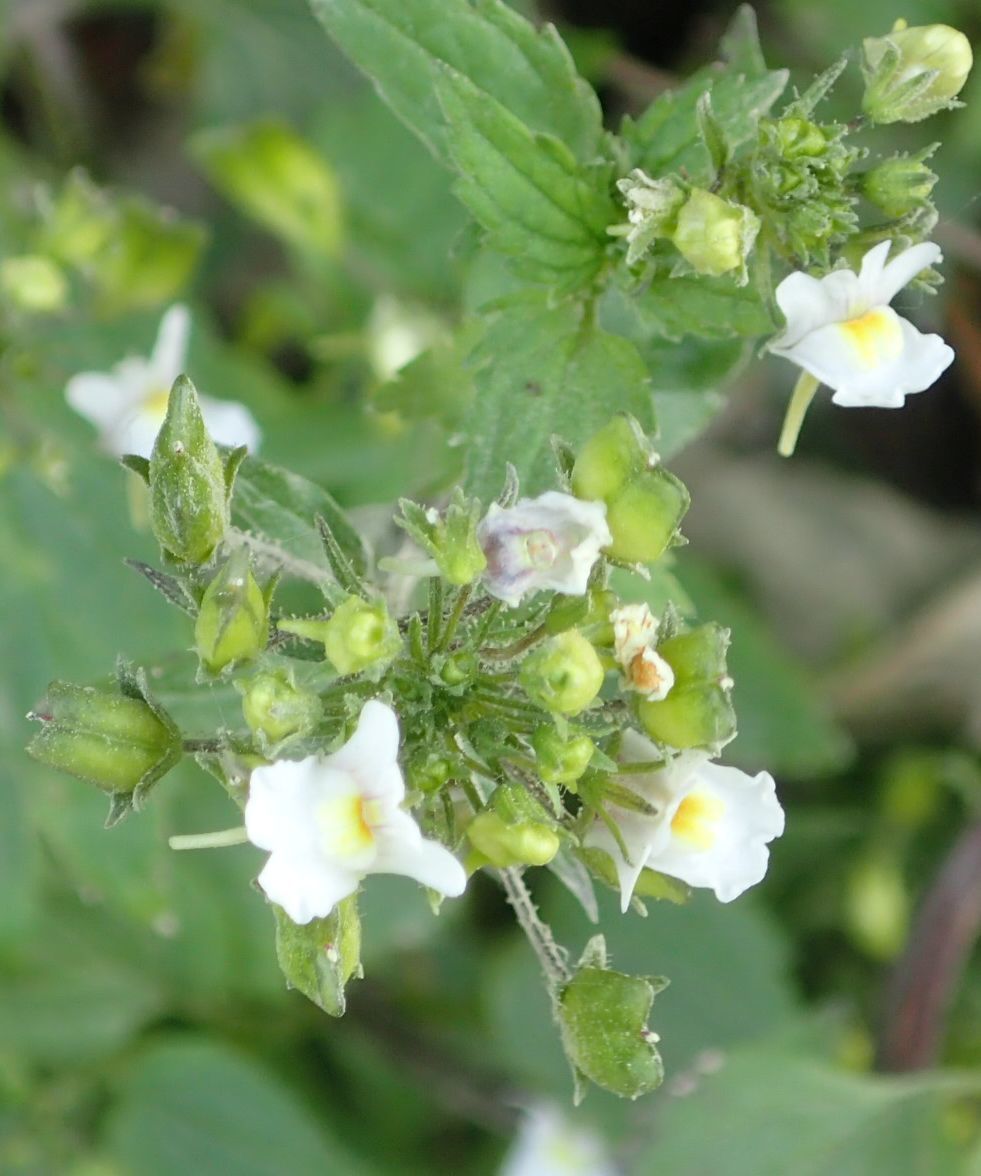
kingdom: Plantae
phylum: Tracheophyta
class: Magnoliopsida
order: Lamiales
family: Scrophulariaceae
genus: Nemesia
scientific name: Nemesia floribunda
